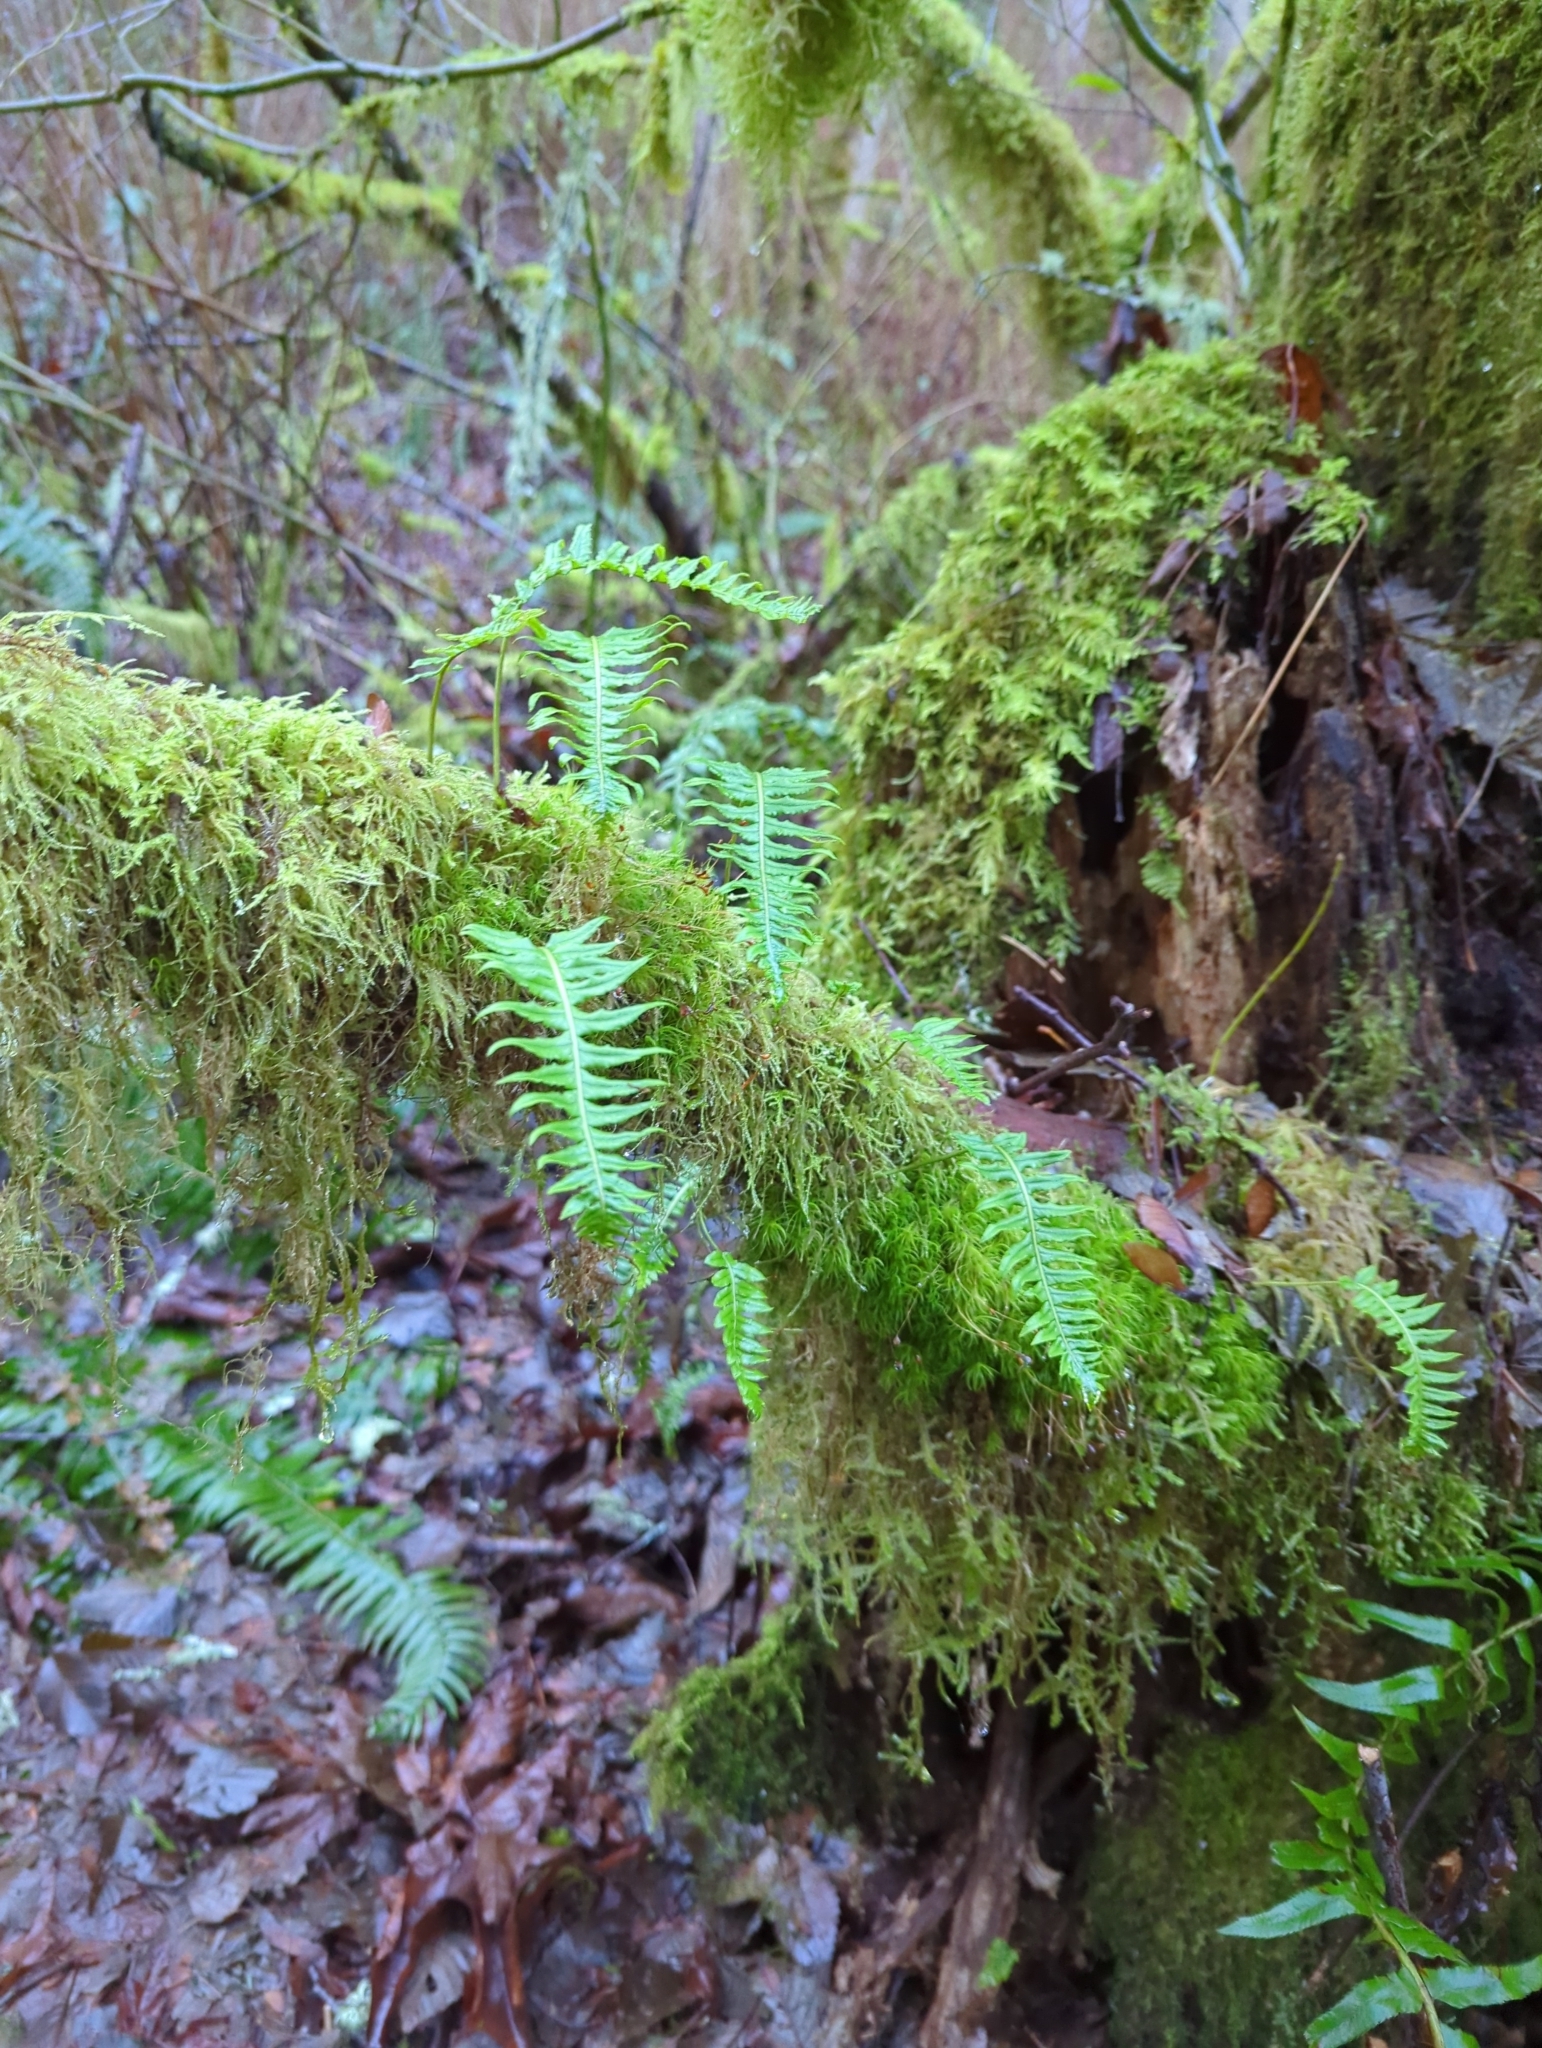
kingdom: Plantae
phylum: Tracheophyta
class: Polypodiopsida
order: Polypodiales
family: Polypodiaceae
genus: Polypodium
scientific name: Polypodium glycyrrhiza
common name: Licorice fern
